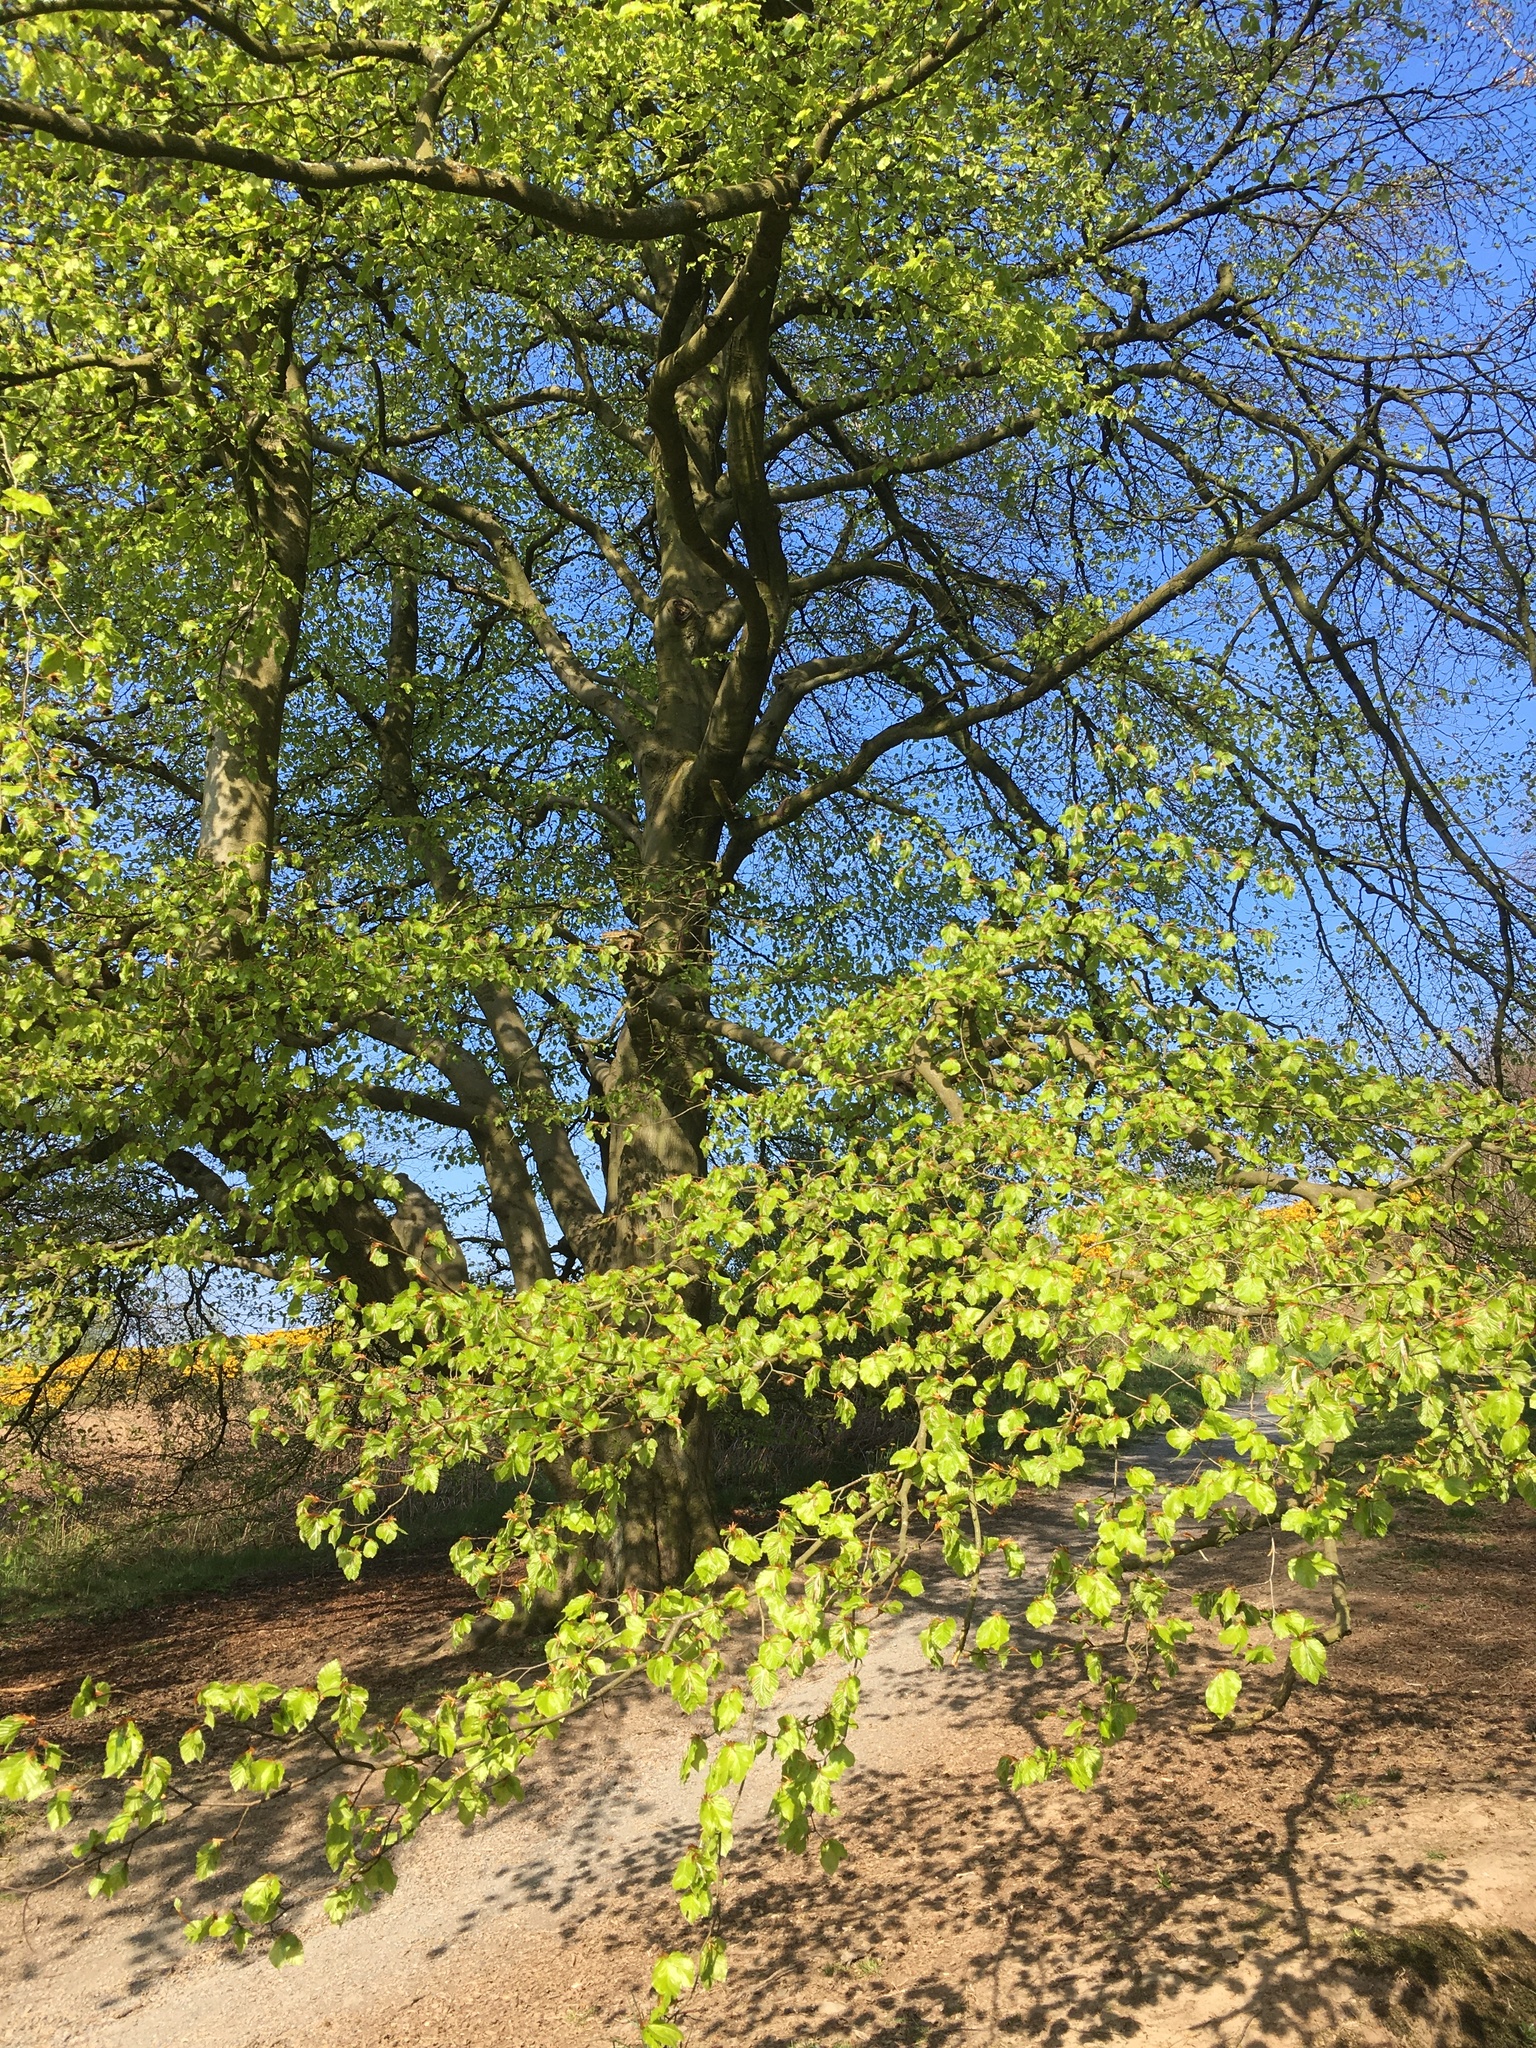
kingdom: Plantae
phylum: Tracheophyta
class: Magnoliopsida
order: Fagales
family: Fagaceae
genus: Fagus
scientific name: Fagus sylvatica
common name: Beech
